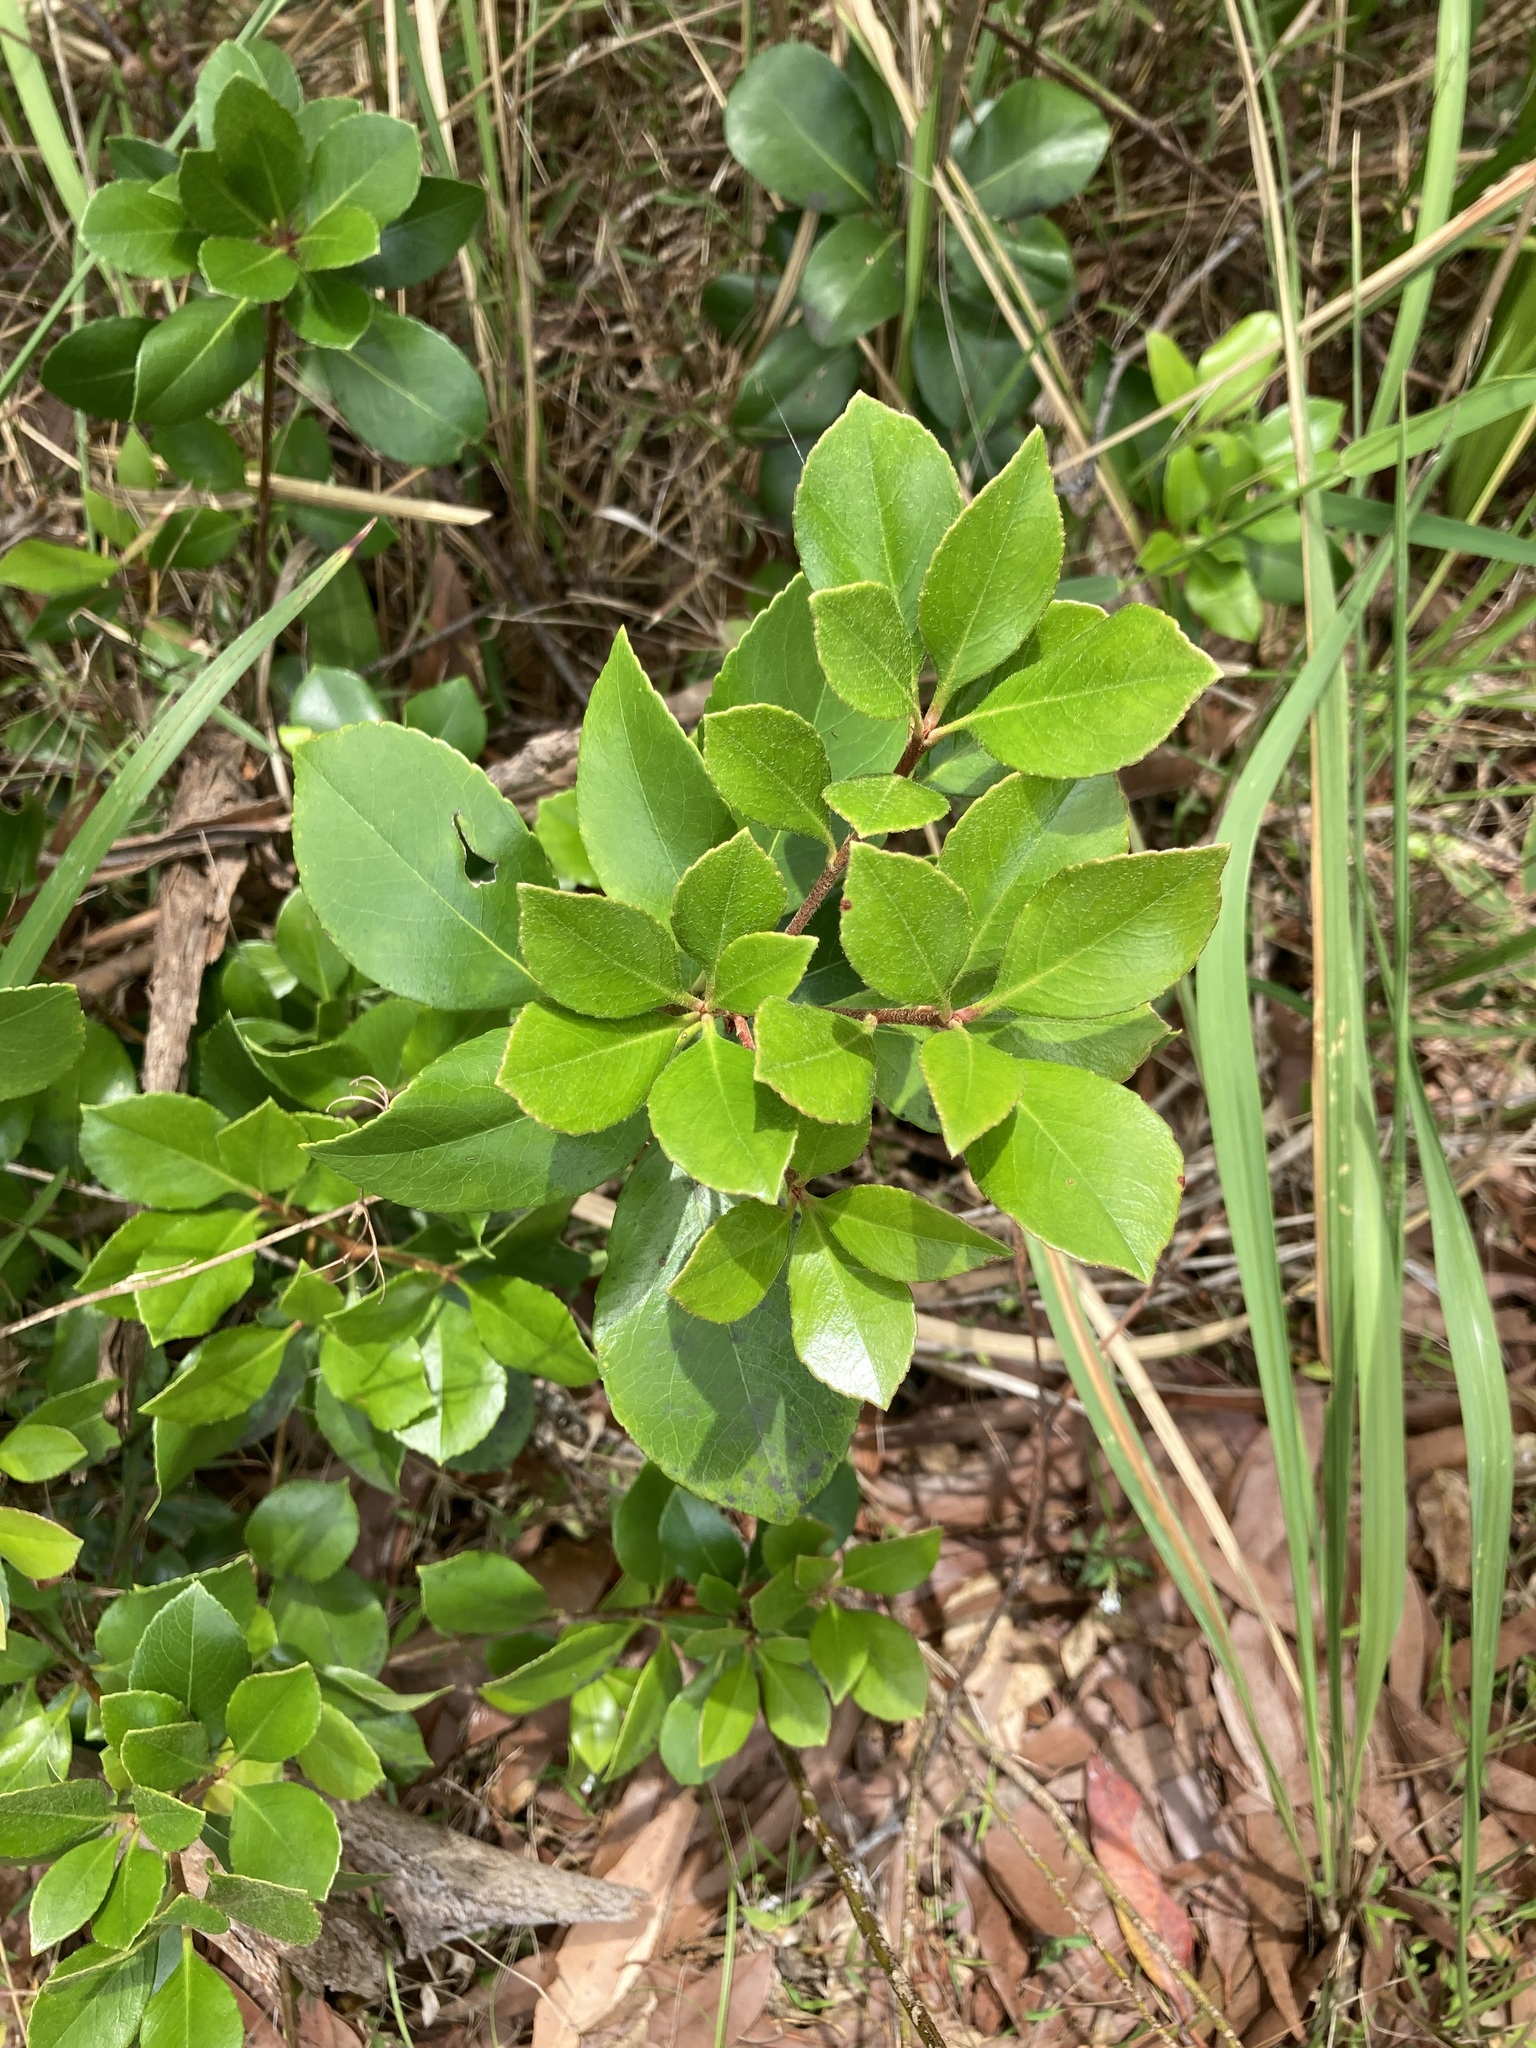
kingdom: Plantae
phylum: Tracheophyta
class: Magnoliopsida
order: Rosales
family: Rosaceae
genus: Rhaphiolepis
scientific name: Rhaphiolepis indica
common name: India-hawthorn
